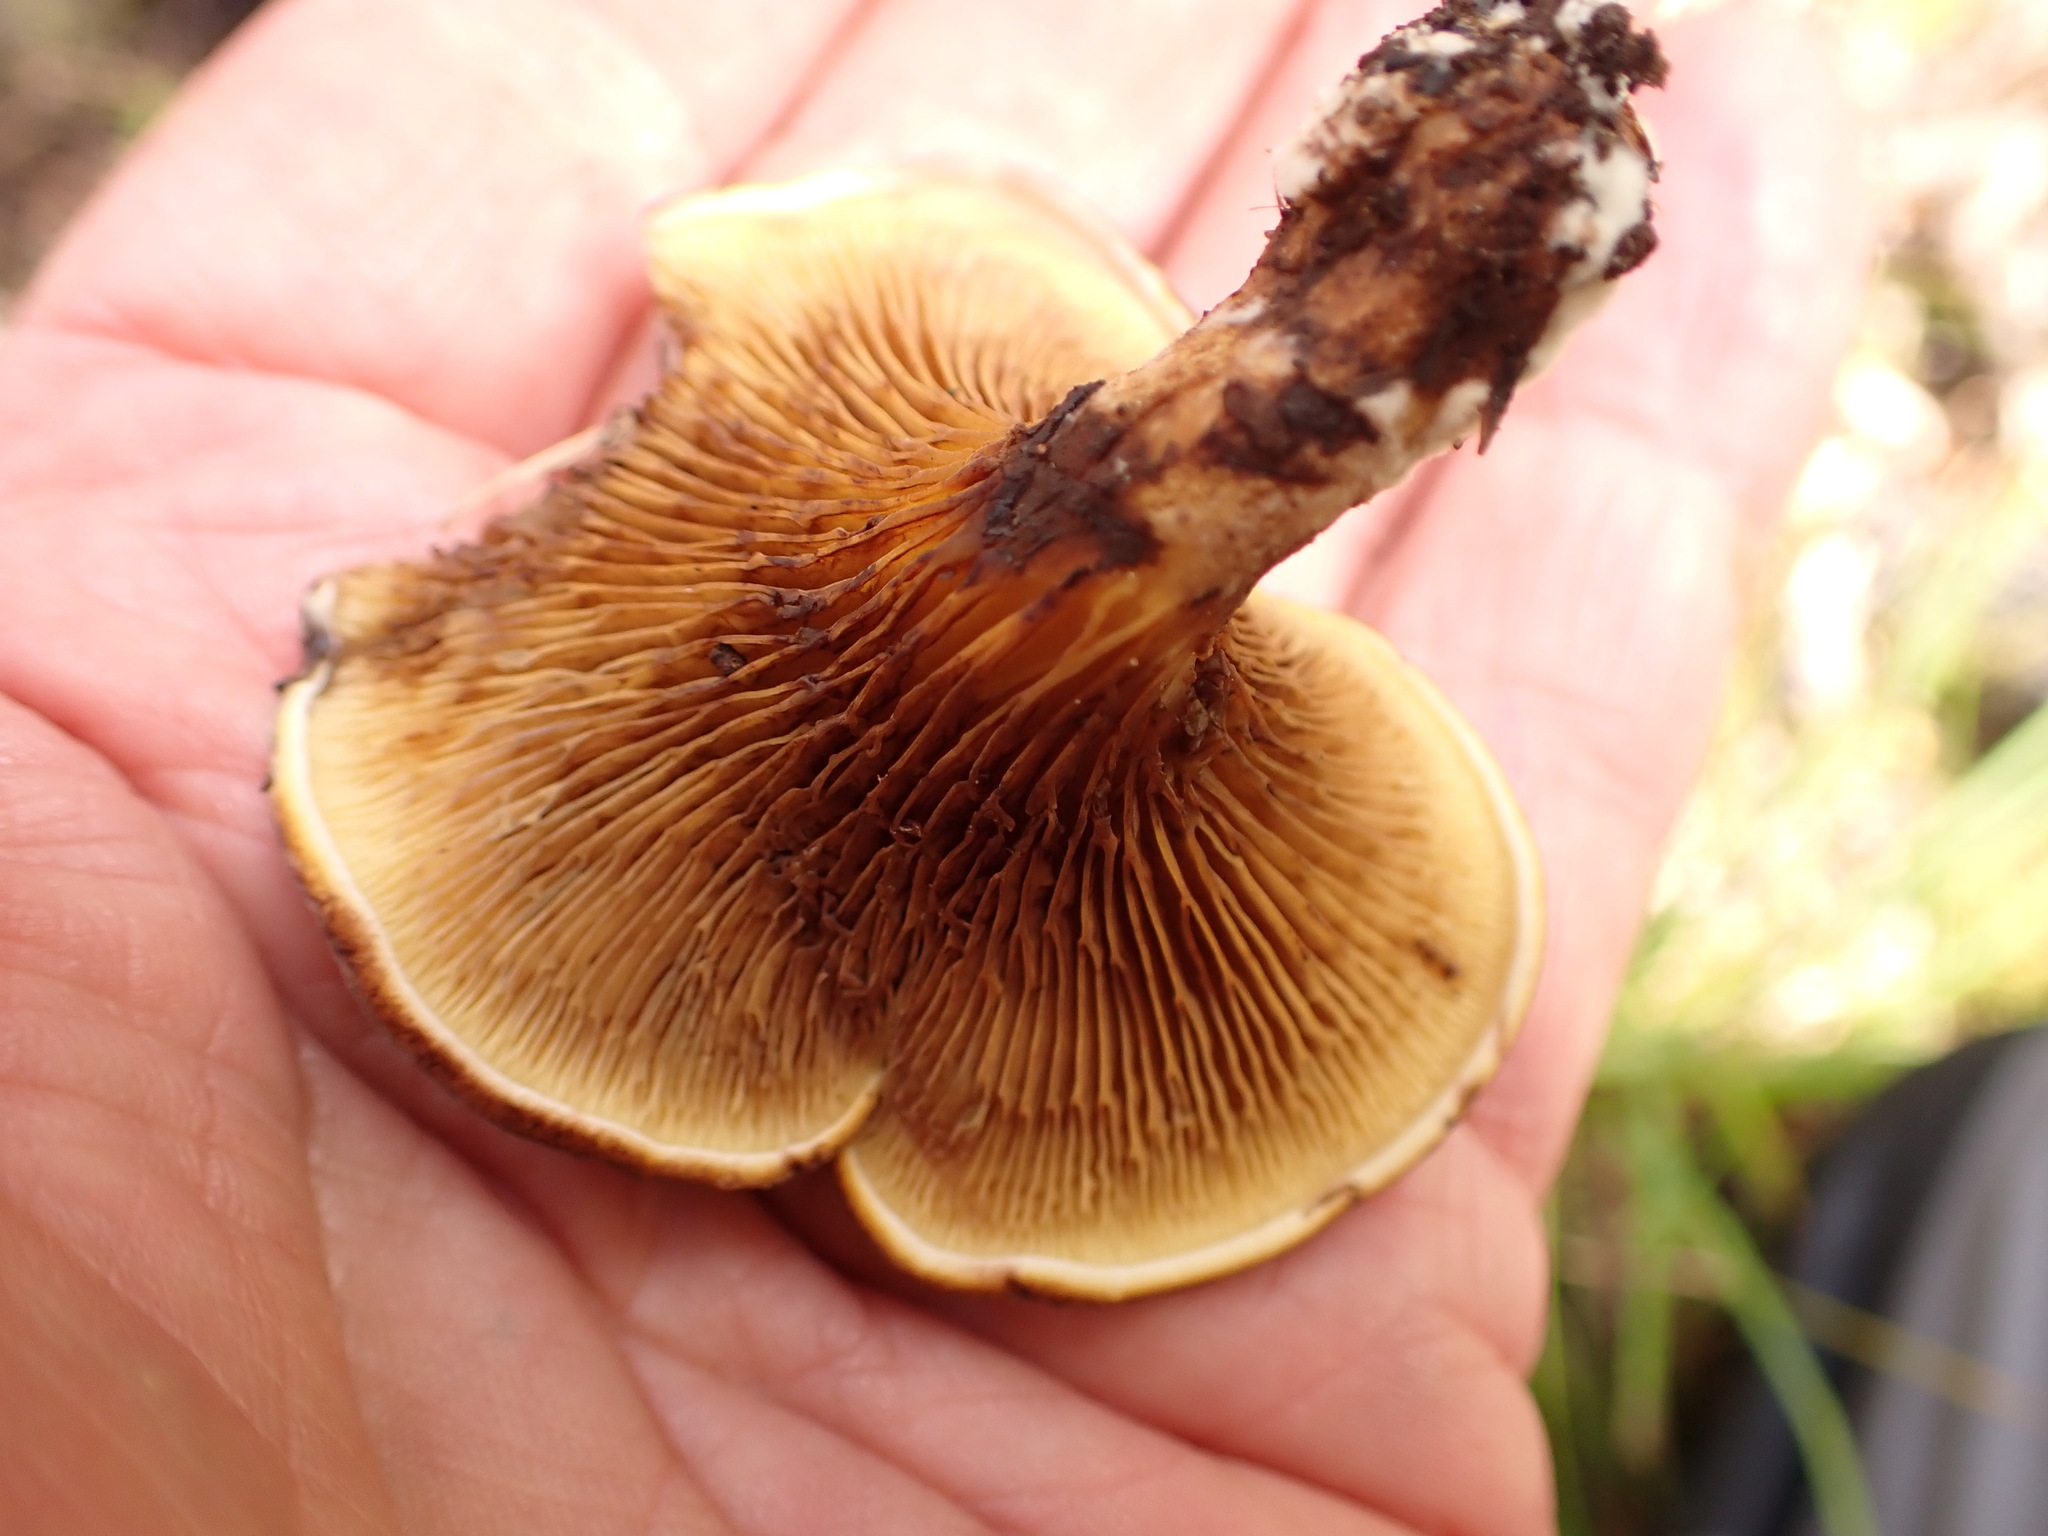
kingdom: Fungi
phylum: Basidiomycota
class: Agaricomycetes
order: Boletales
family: Serpulaceae
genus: Austropaxillus
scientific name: Austropaxillus squarrosus
